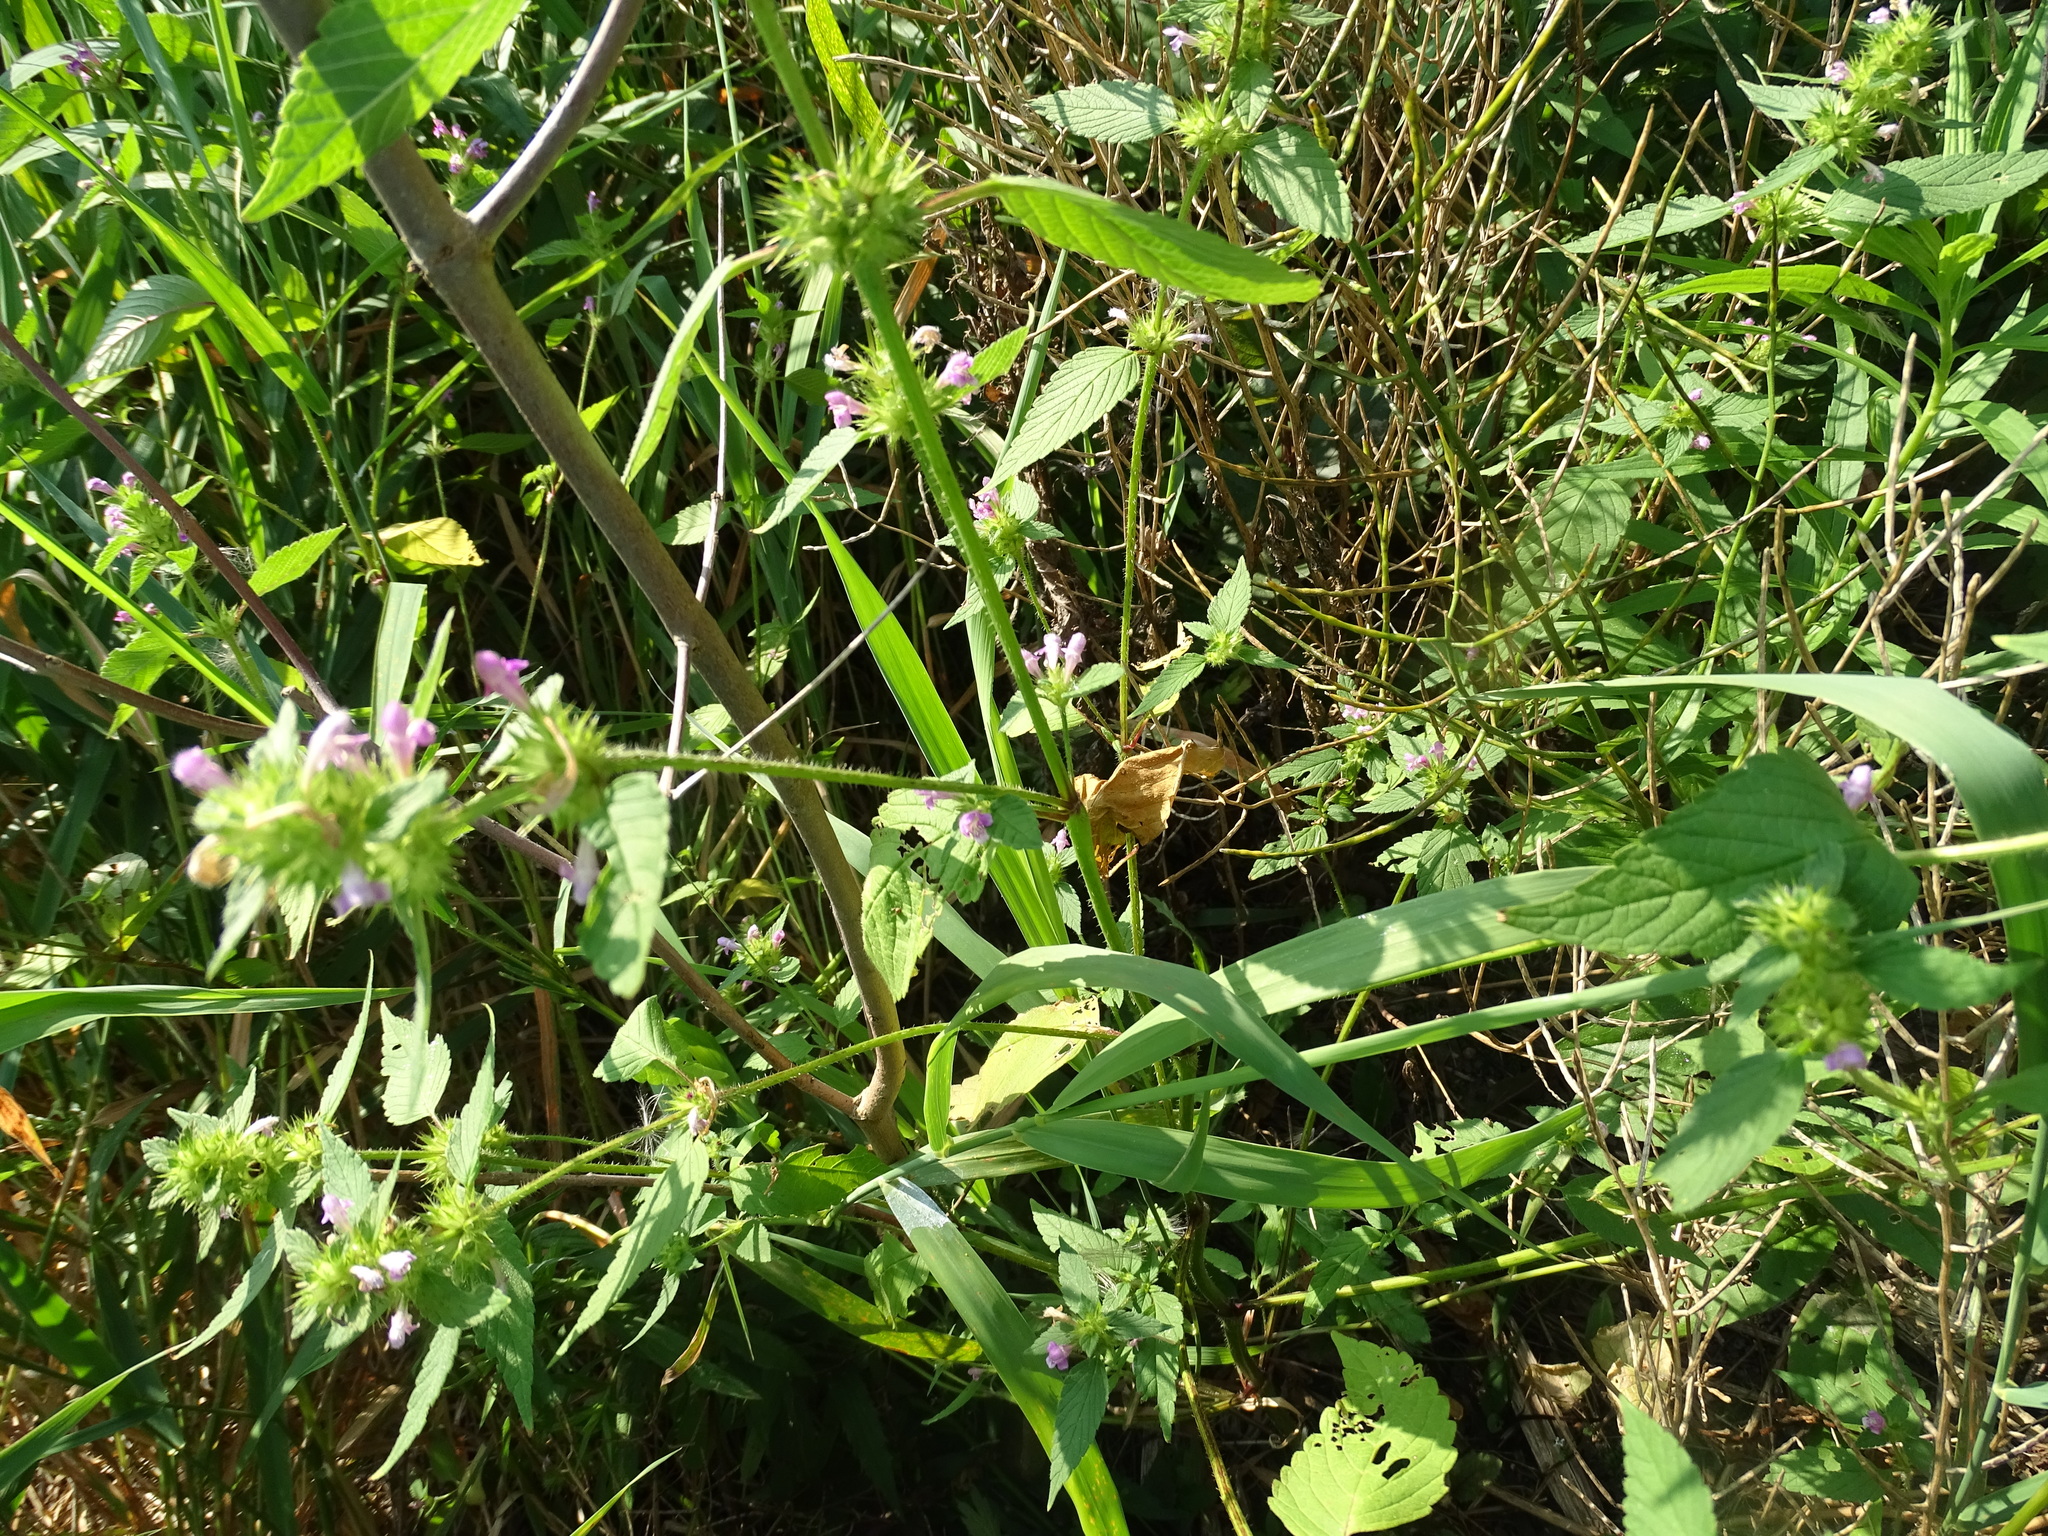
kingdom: Plantae
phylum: Tracheophyta
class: Magnoliopsida
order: Lamiales
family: Lamiaceae
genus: Galeopsis
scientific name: Galeopsis tetrahit
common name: Common hemp-nettle
